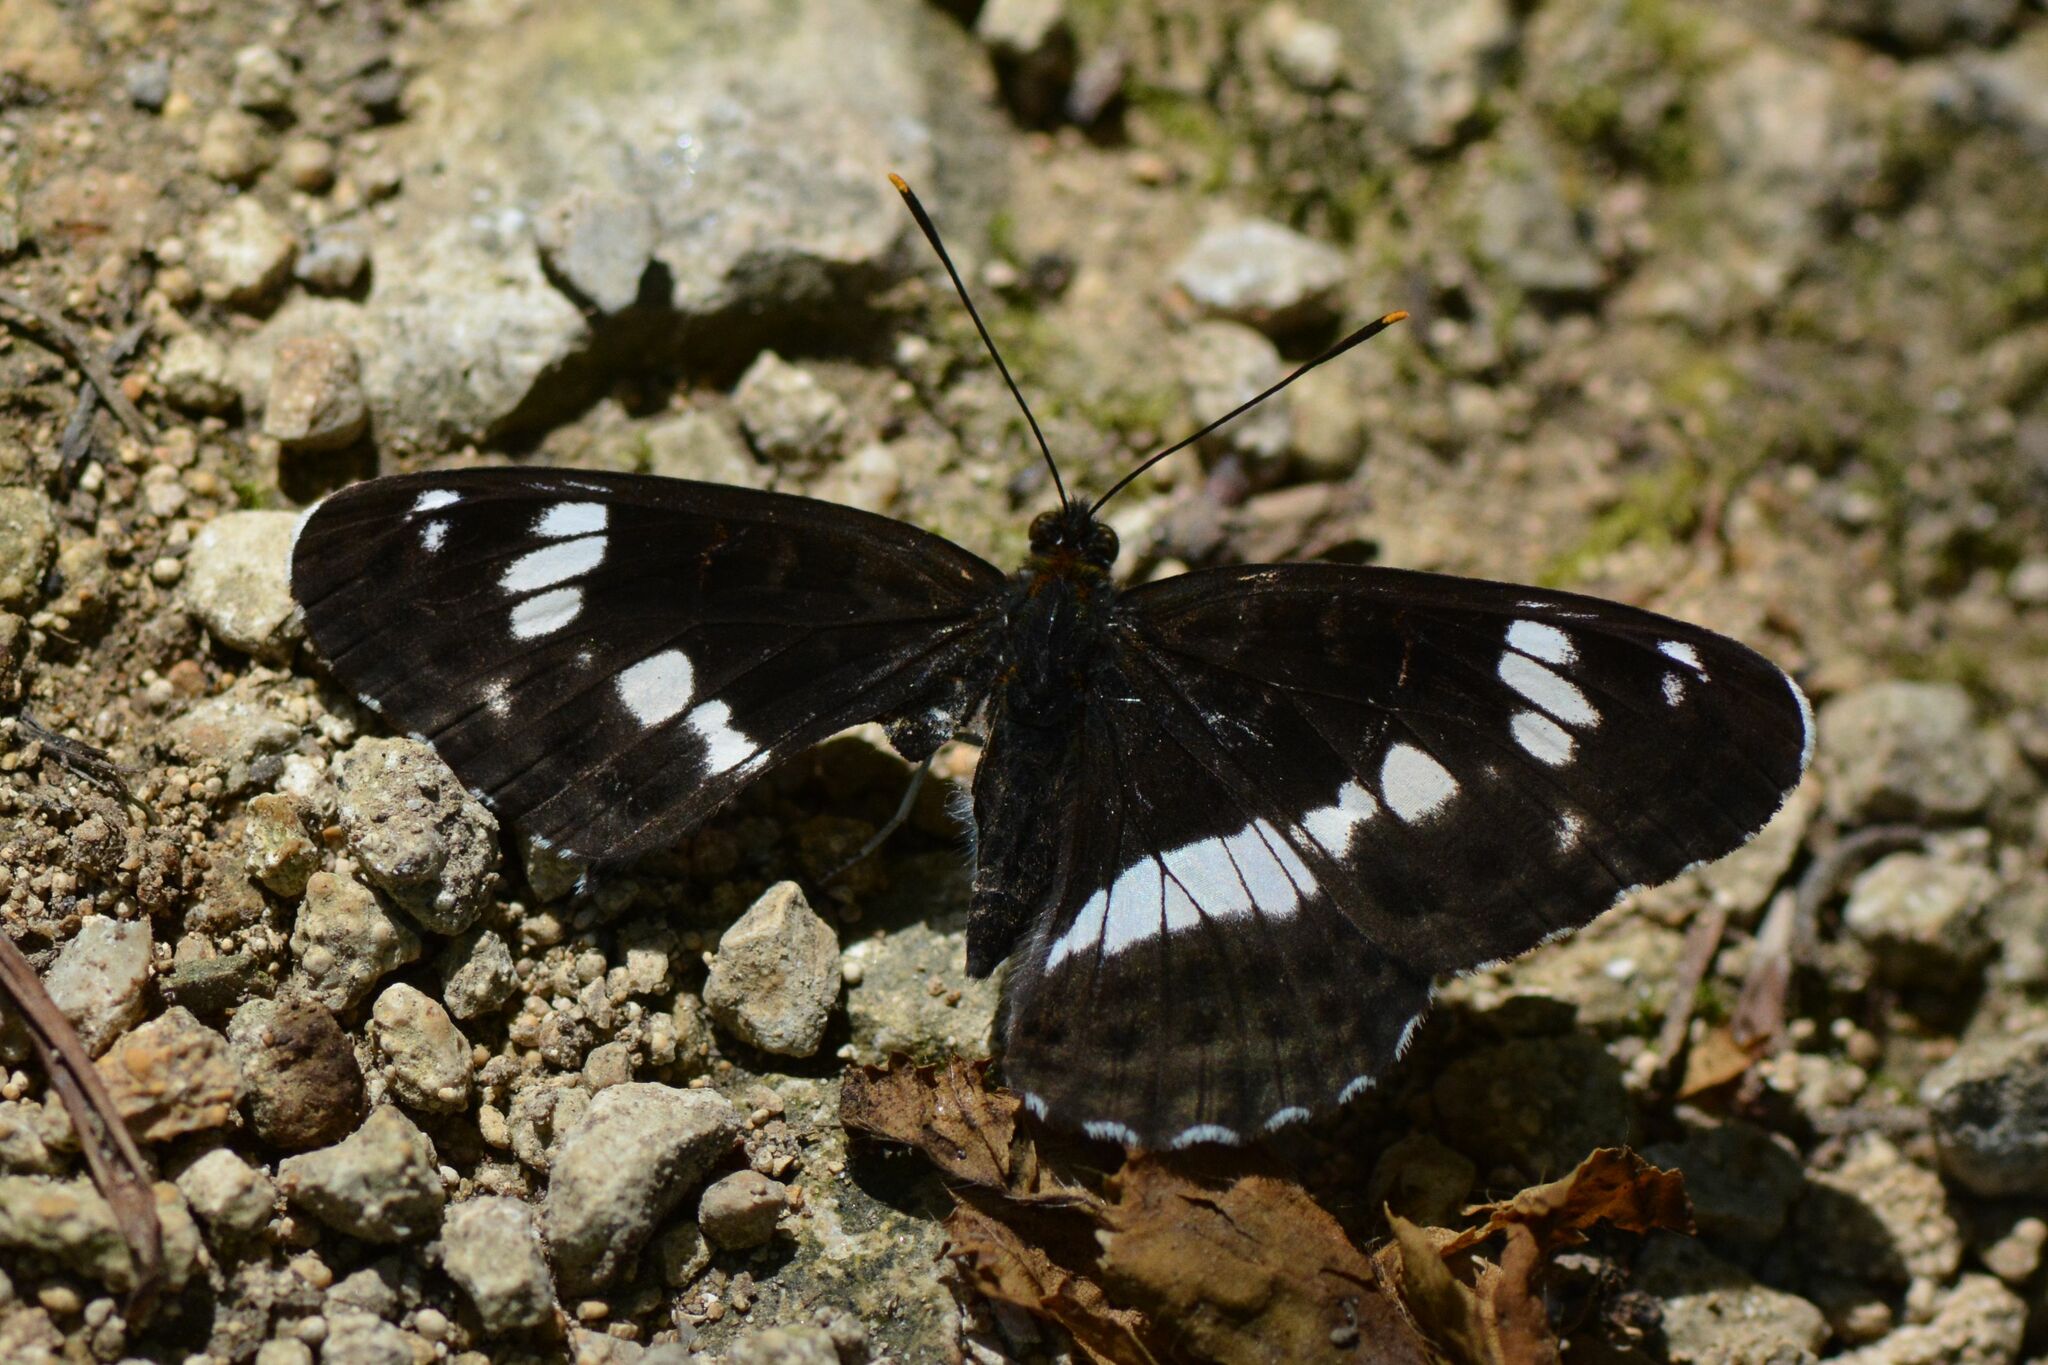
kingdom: Animalia
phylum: Arthropoda
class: Insecta
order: Lepidoptera
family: Nymphalidae
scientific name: Nymphalidae
